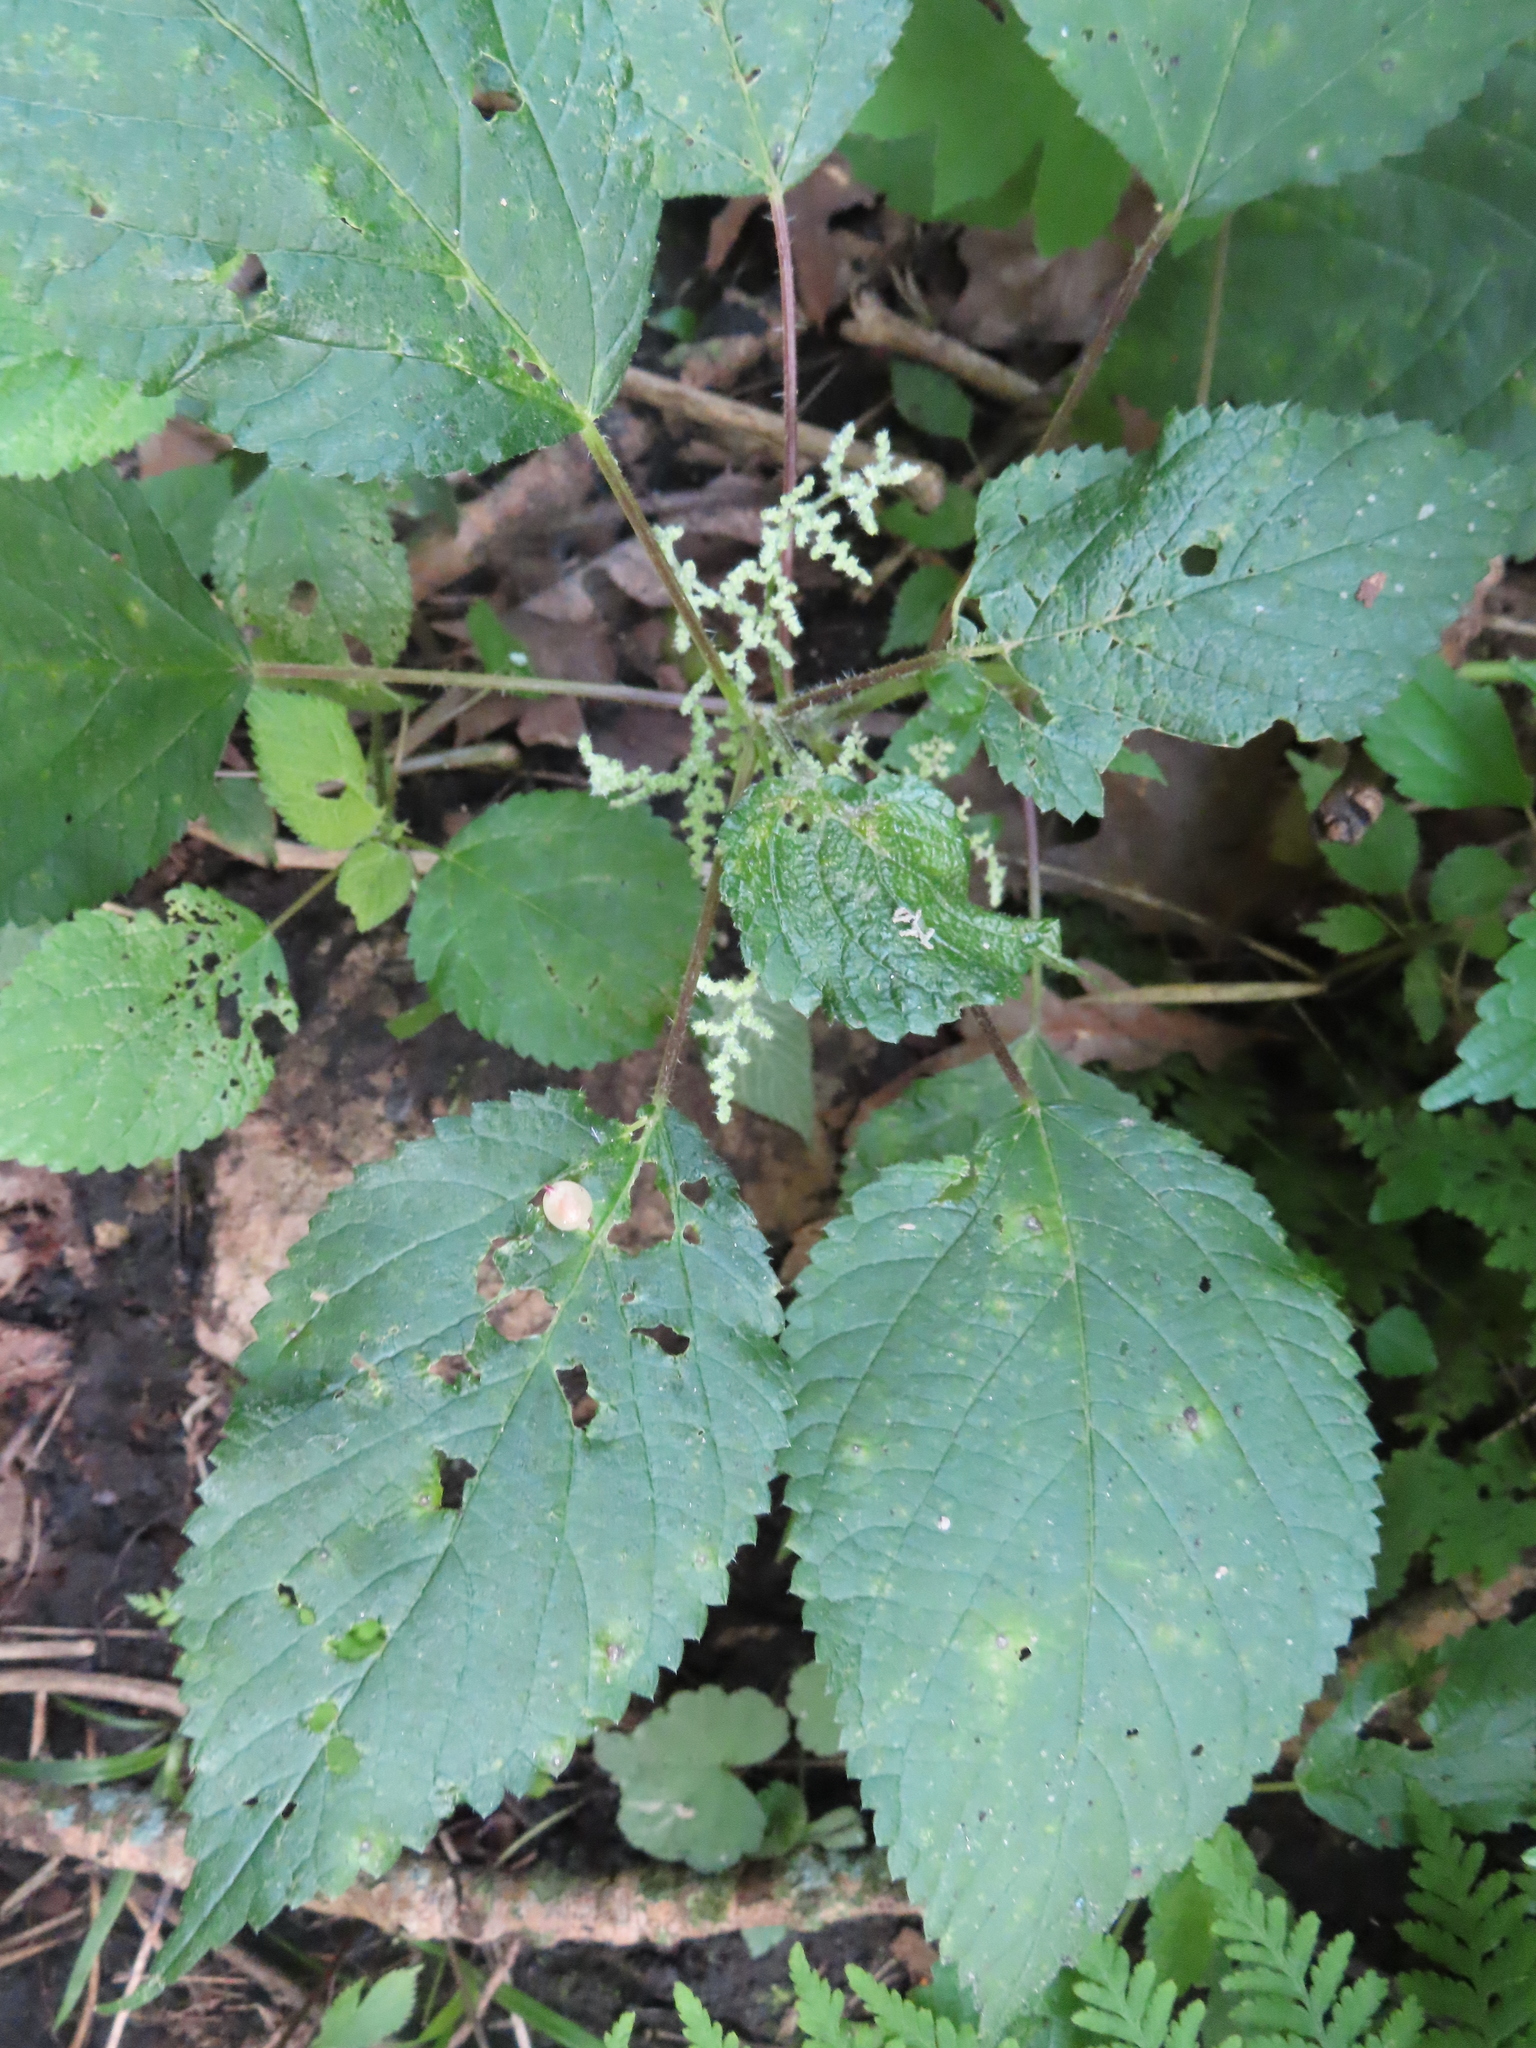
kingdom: Plantae
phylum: Tracheophyta
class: Magnoliopsida
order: Rosales
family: Urticaceae
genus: Laportea
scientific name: Laportea canadensis
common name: Canada nettle
